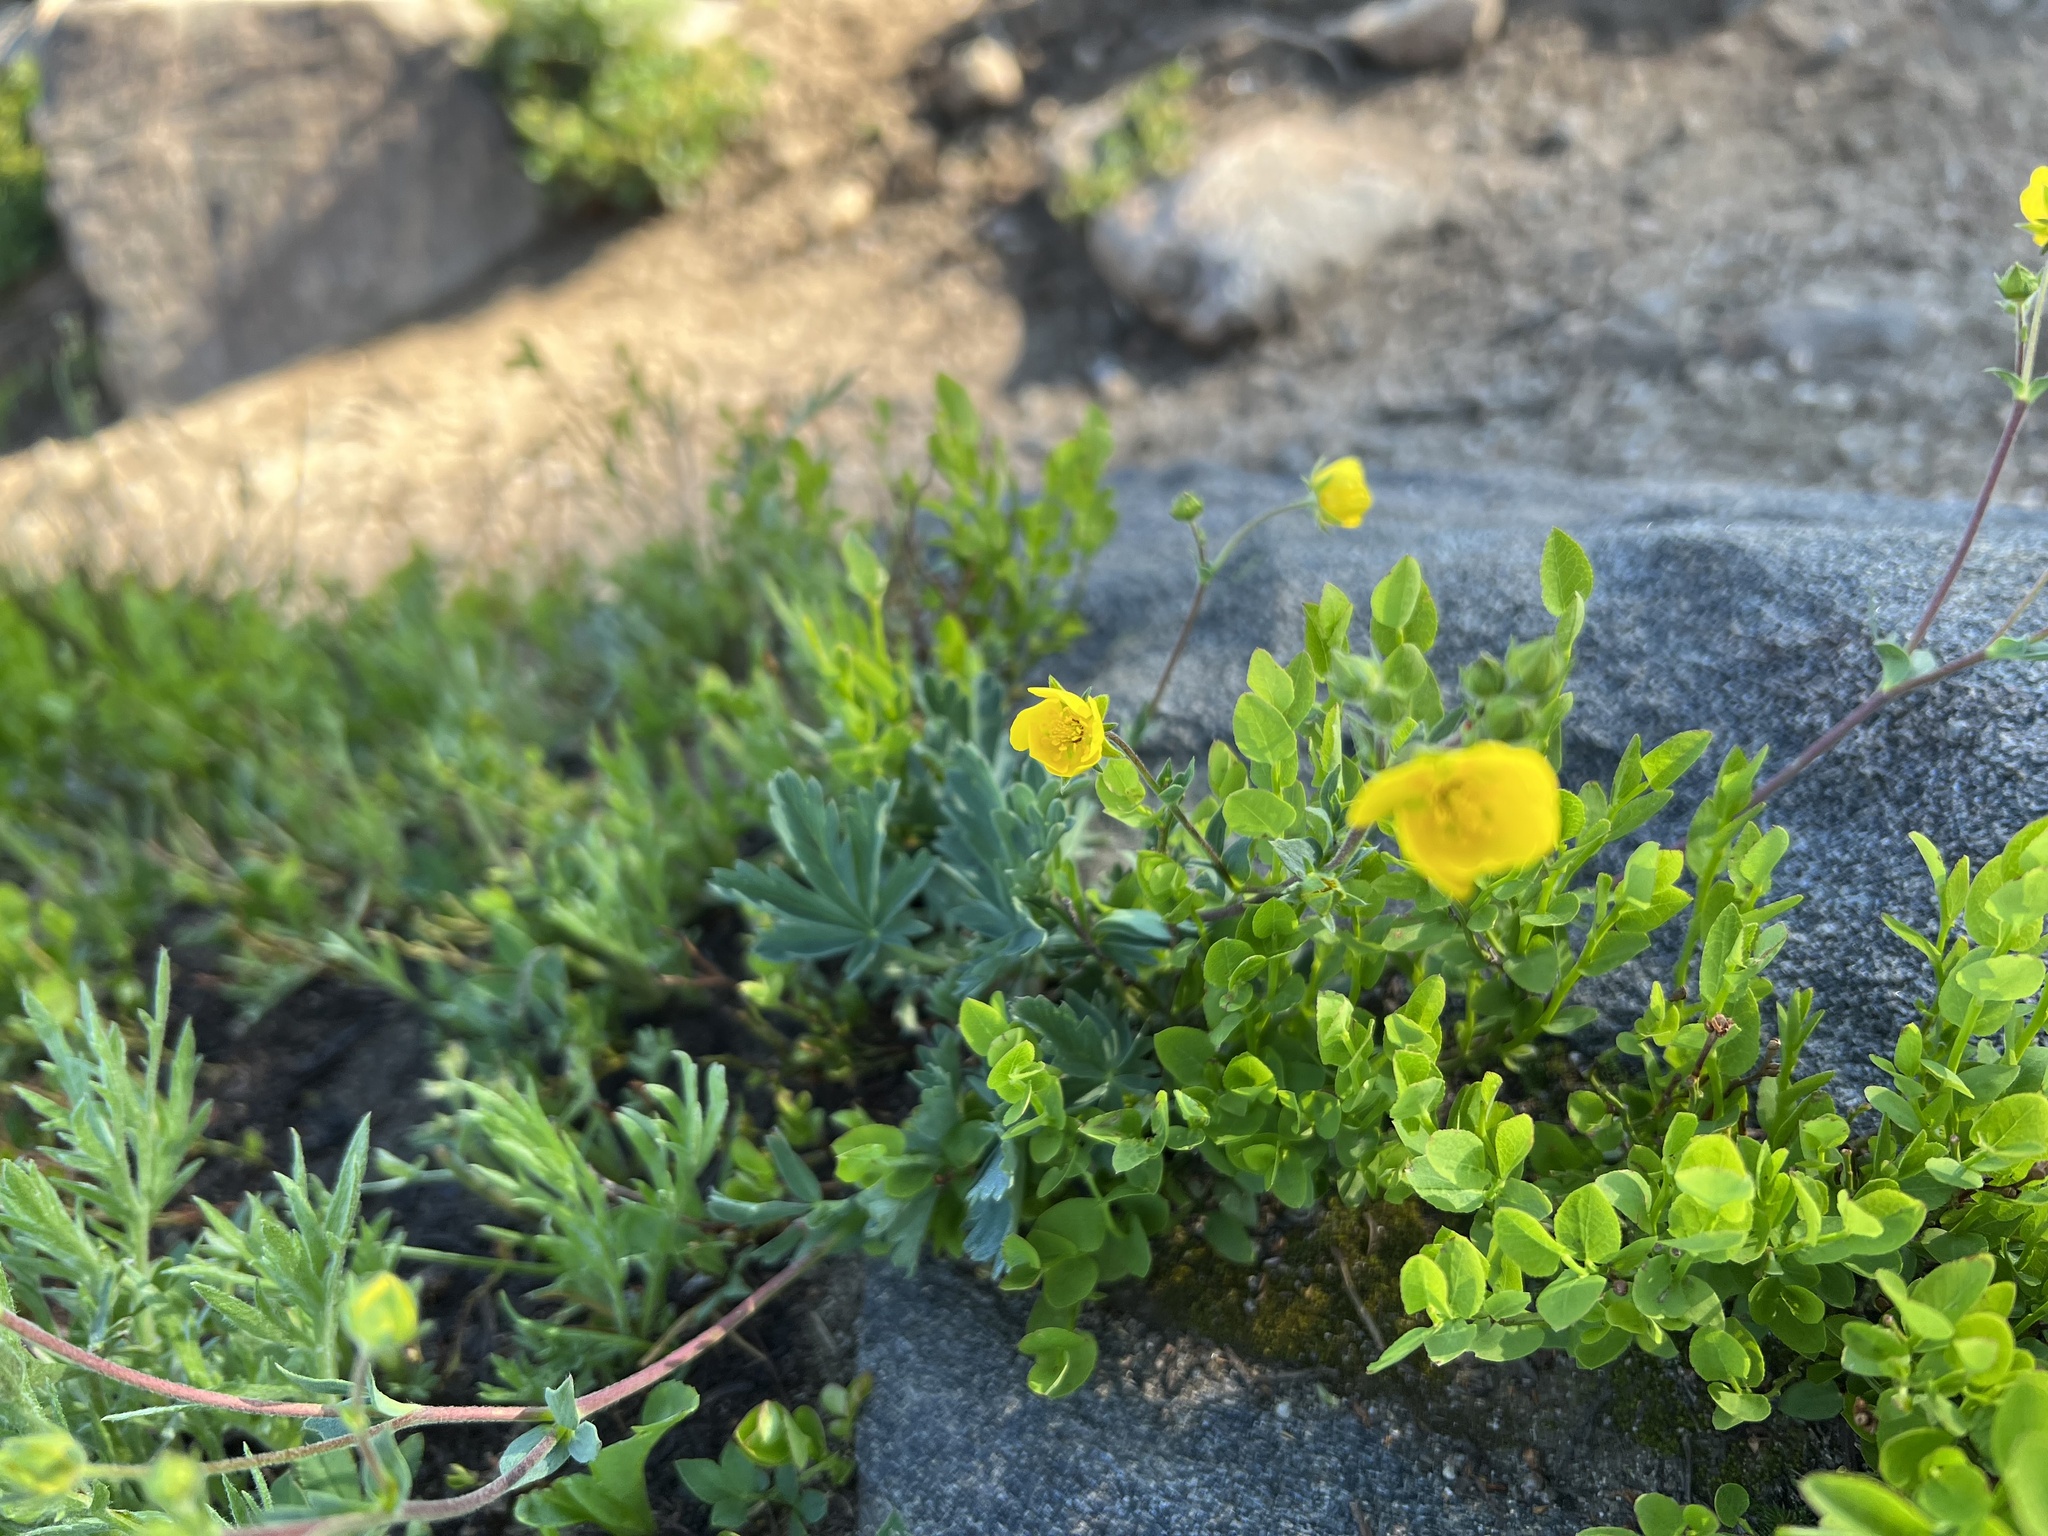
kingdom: Plantae
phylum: Tracheophyta
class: Magnoliopsida
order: Rosales
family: Rosaceae
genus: Potentilla
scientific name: Potentilla glaucophylla
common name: Blue-leaved cinquefoil
